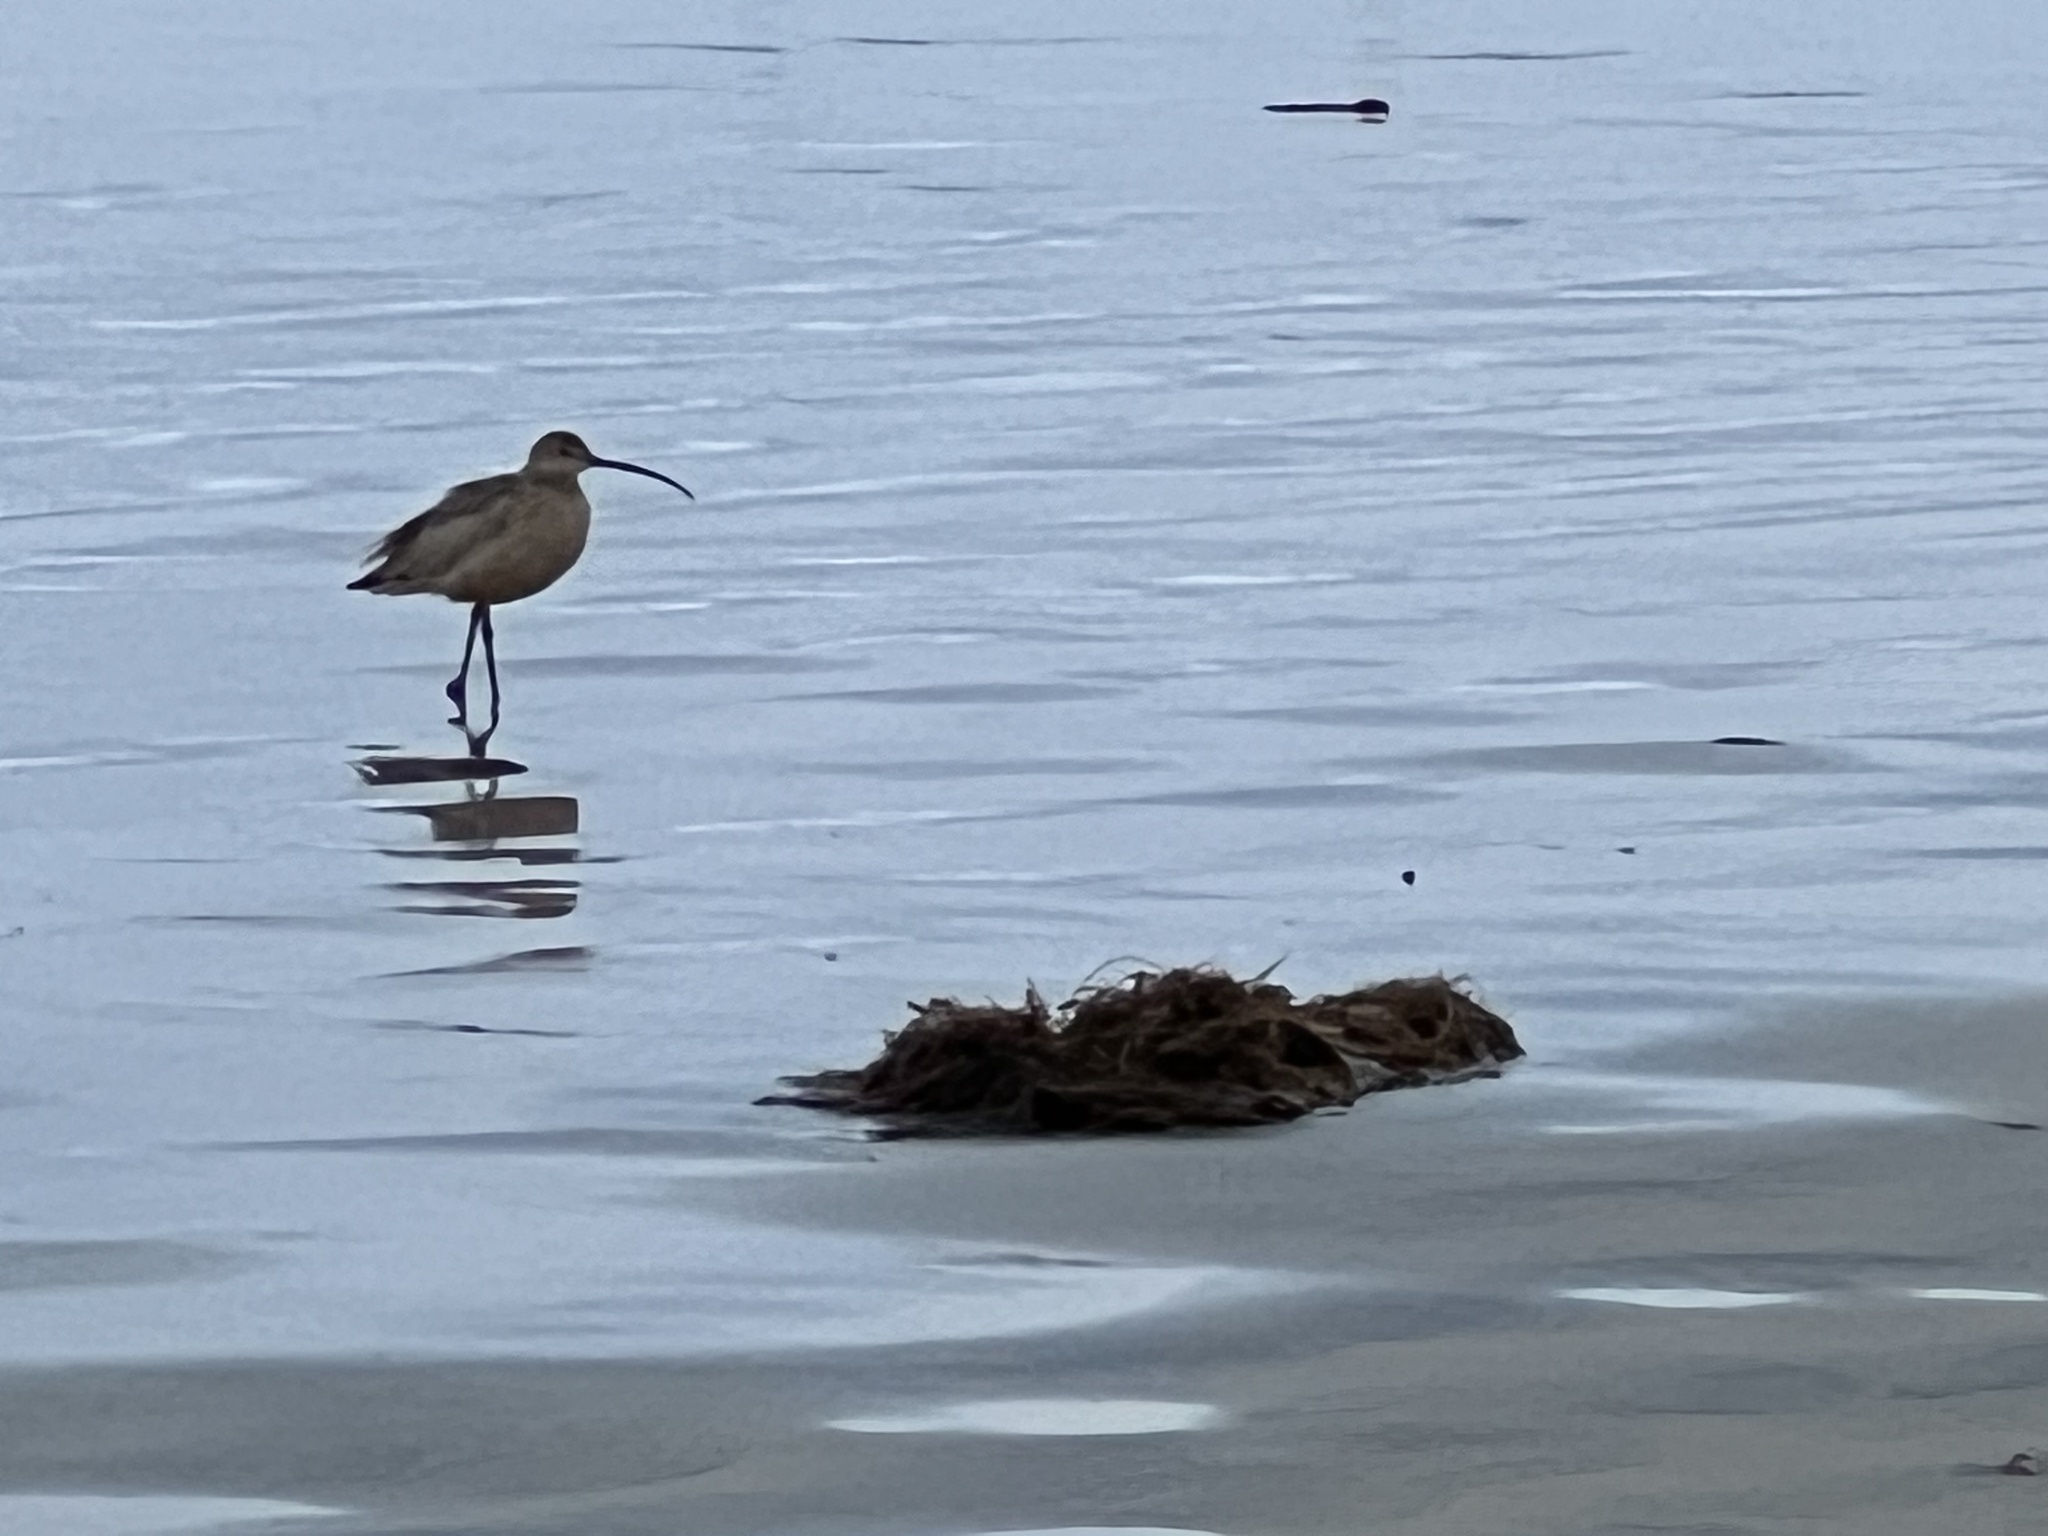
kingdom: Animalia
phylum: Chordata
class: Aves
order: Charadriiformes
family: Scolopacidae
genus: Numenius
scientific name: Numenius americanus
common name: Long-billed curlew
